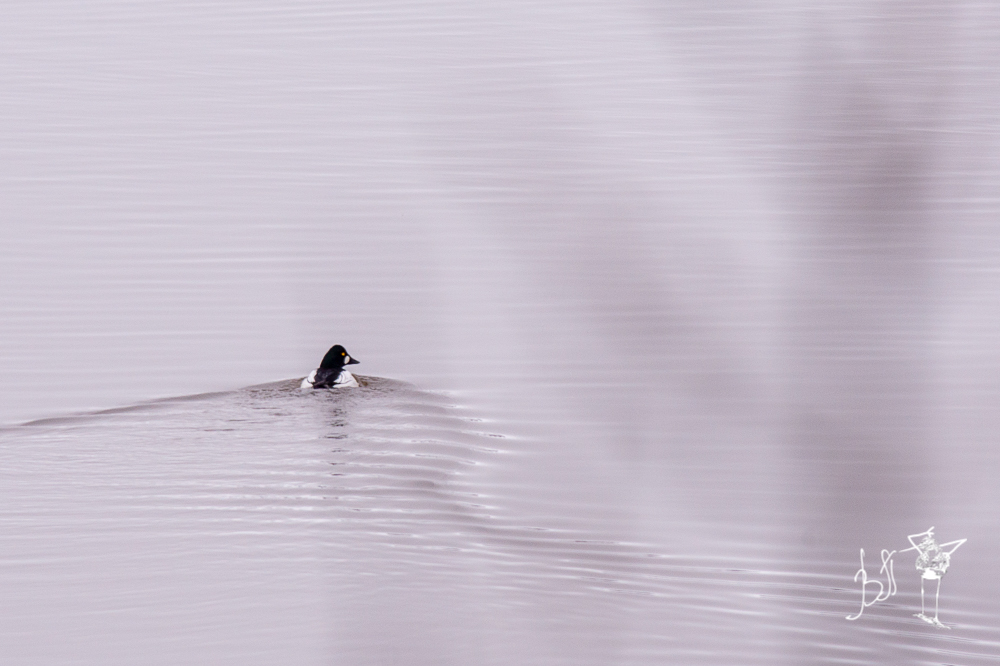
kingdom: Animalia
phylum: Chordata
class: Aves
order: Anseriformes
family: Anatidae
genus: Bucephala
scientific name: Bucephala clangula
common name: Common goldeneye
